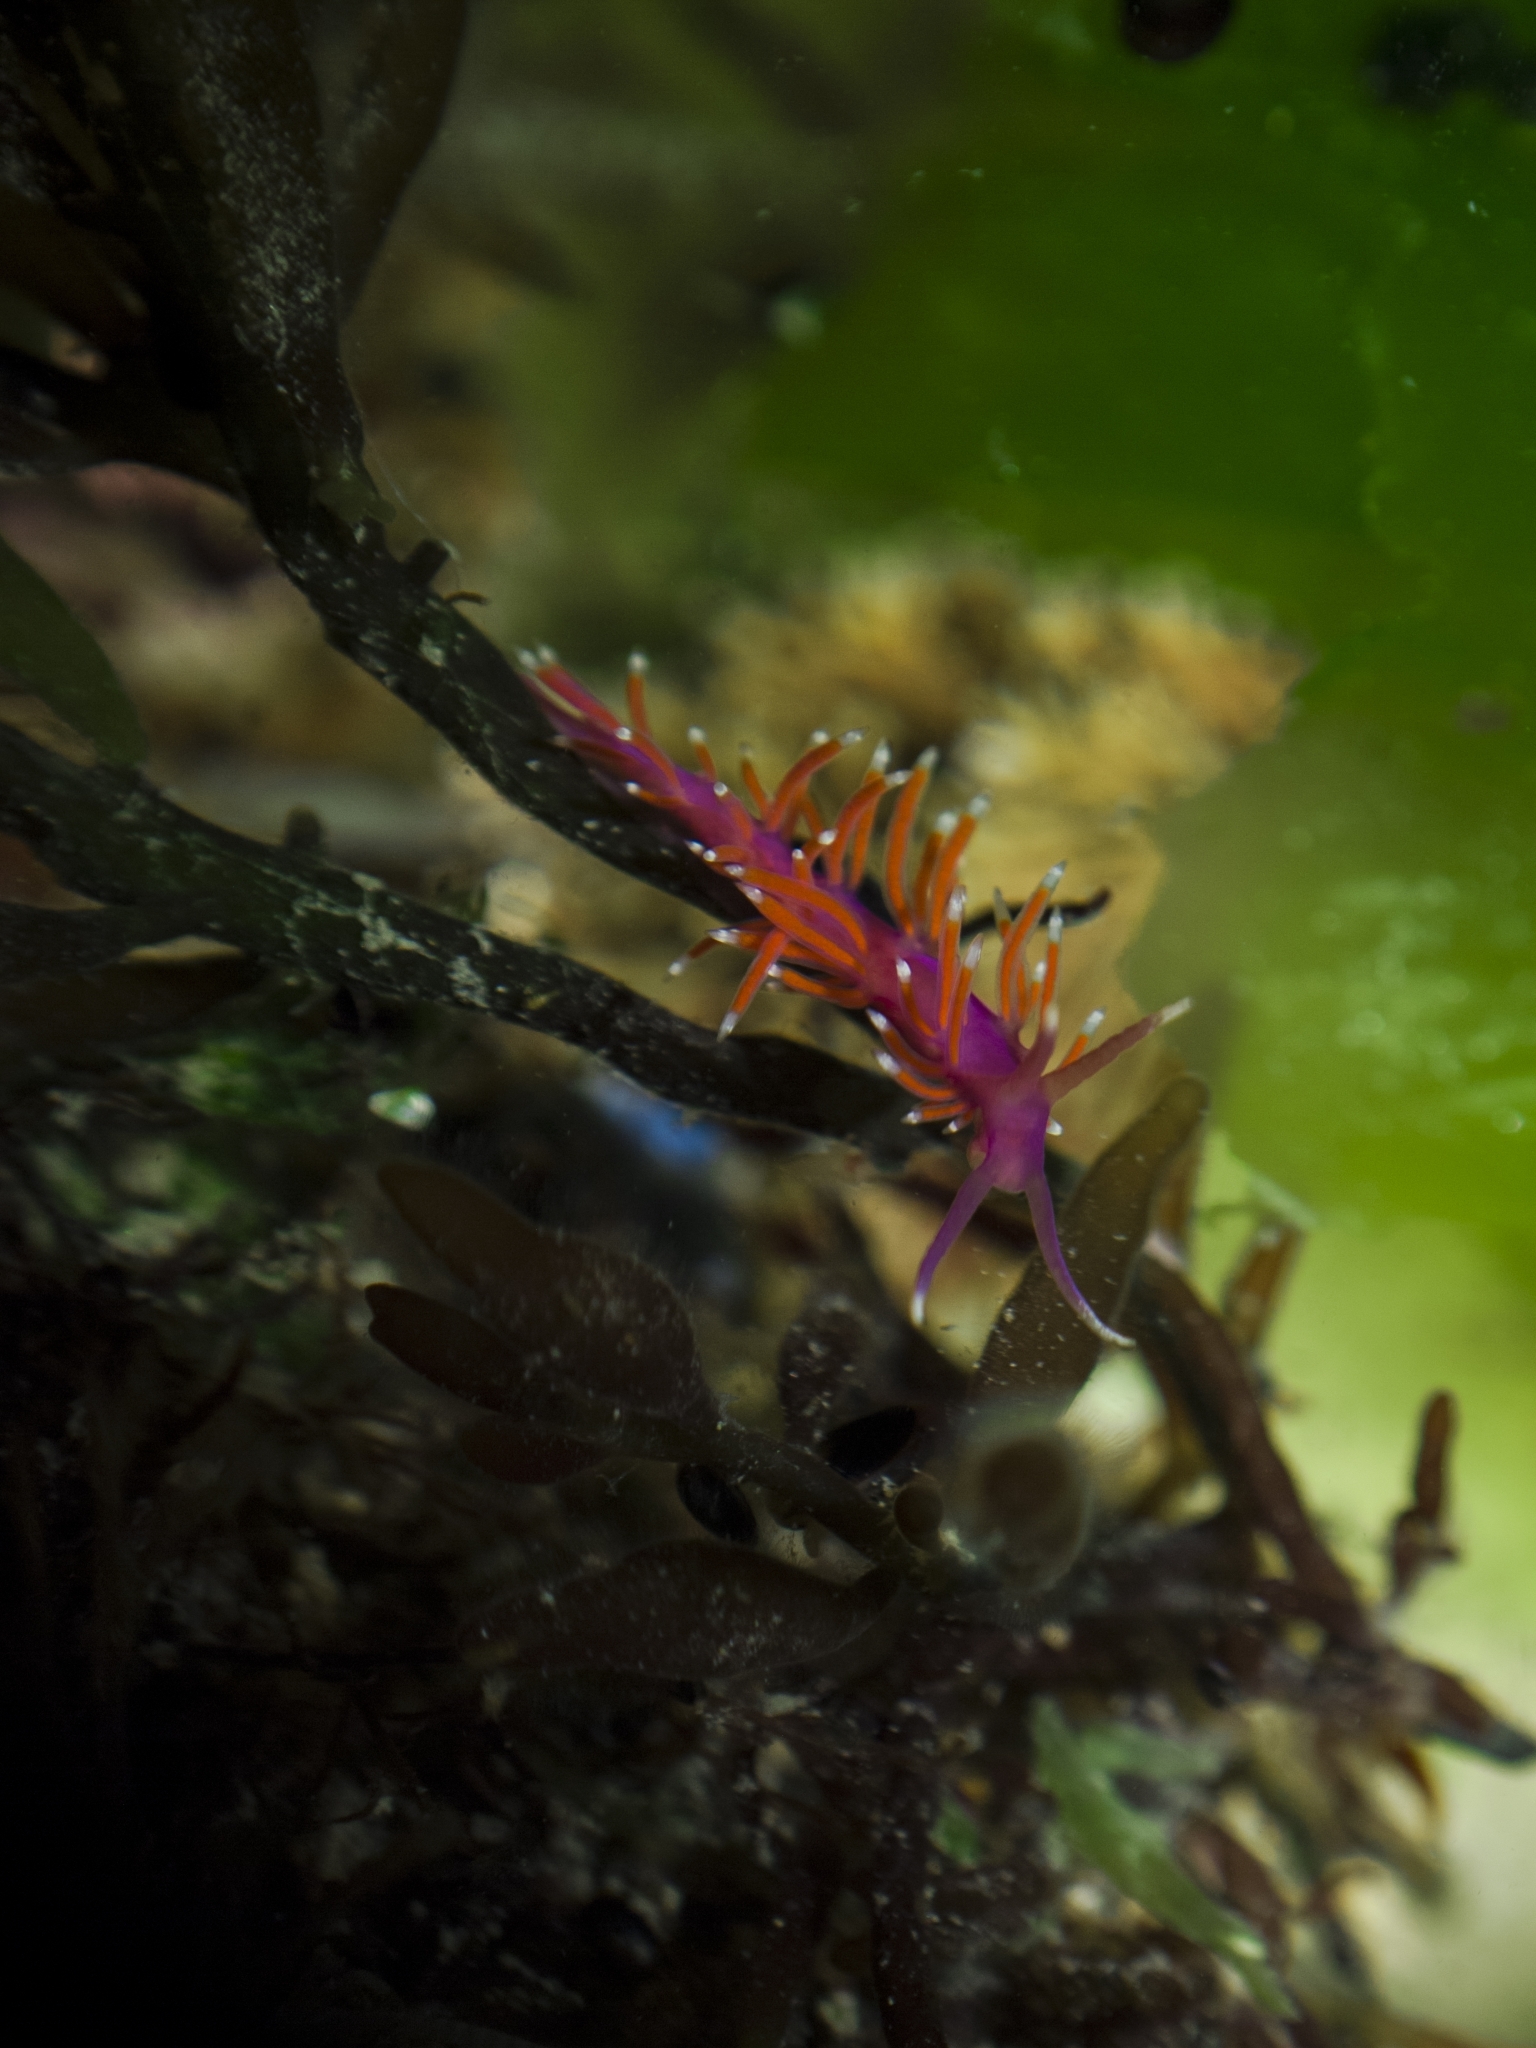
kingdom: Animalia
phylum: Mollusca
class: Gastropoda
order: Nudibranchia
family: Flabellinidae
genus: Edmundsella
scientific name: Edmundsella pedata
